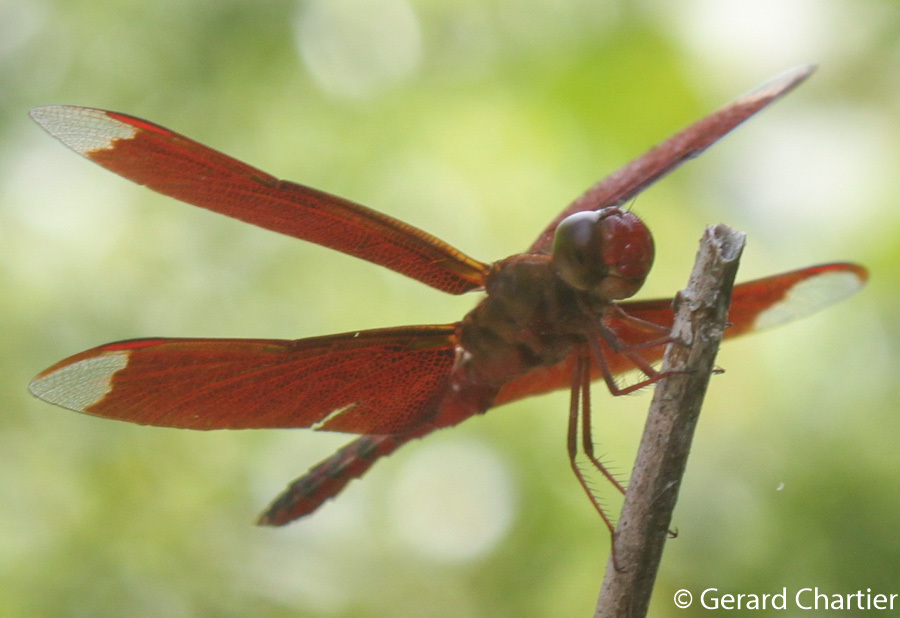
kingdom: Animalia
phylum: Arthropoda
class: Insecta
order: Odonata
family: Libellulidae
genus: Neurothemis
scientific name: Neurothemis fulvia
